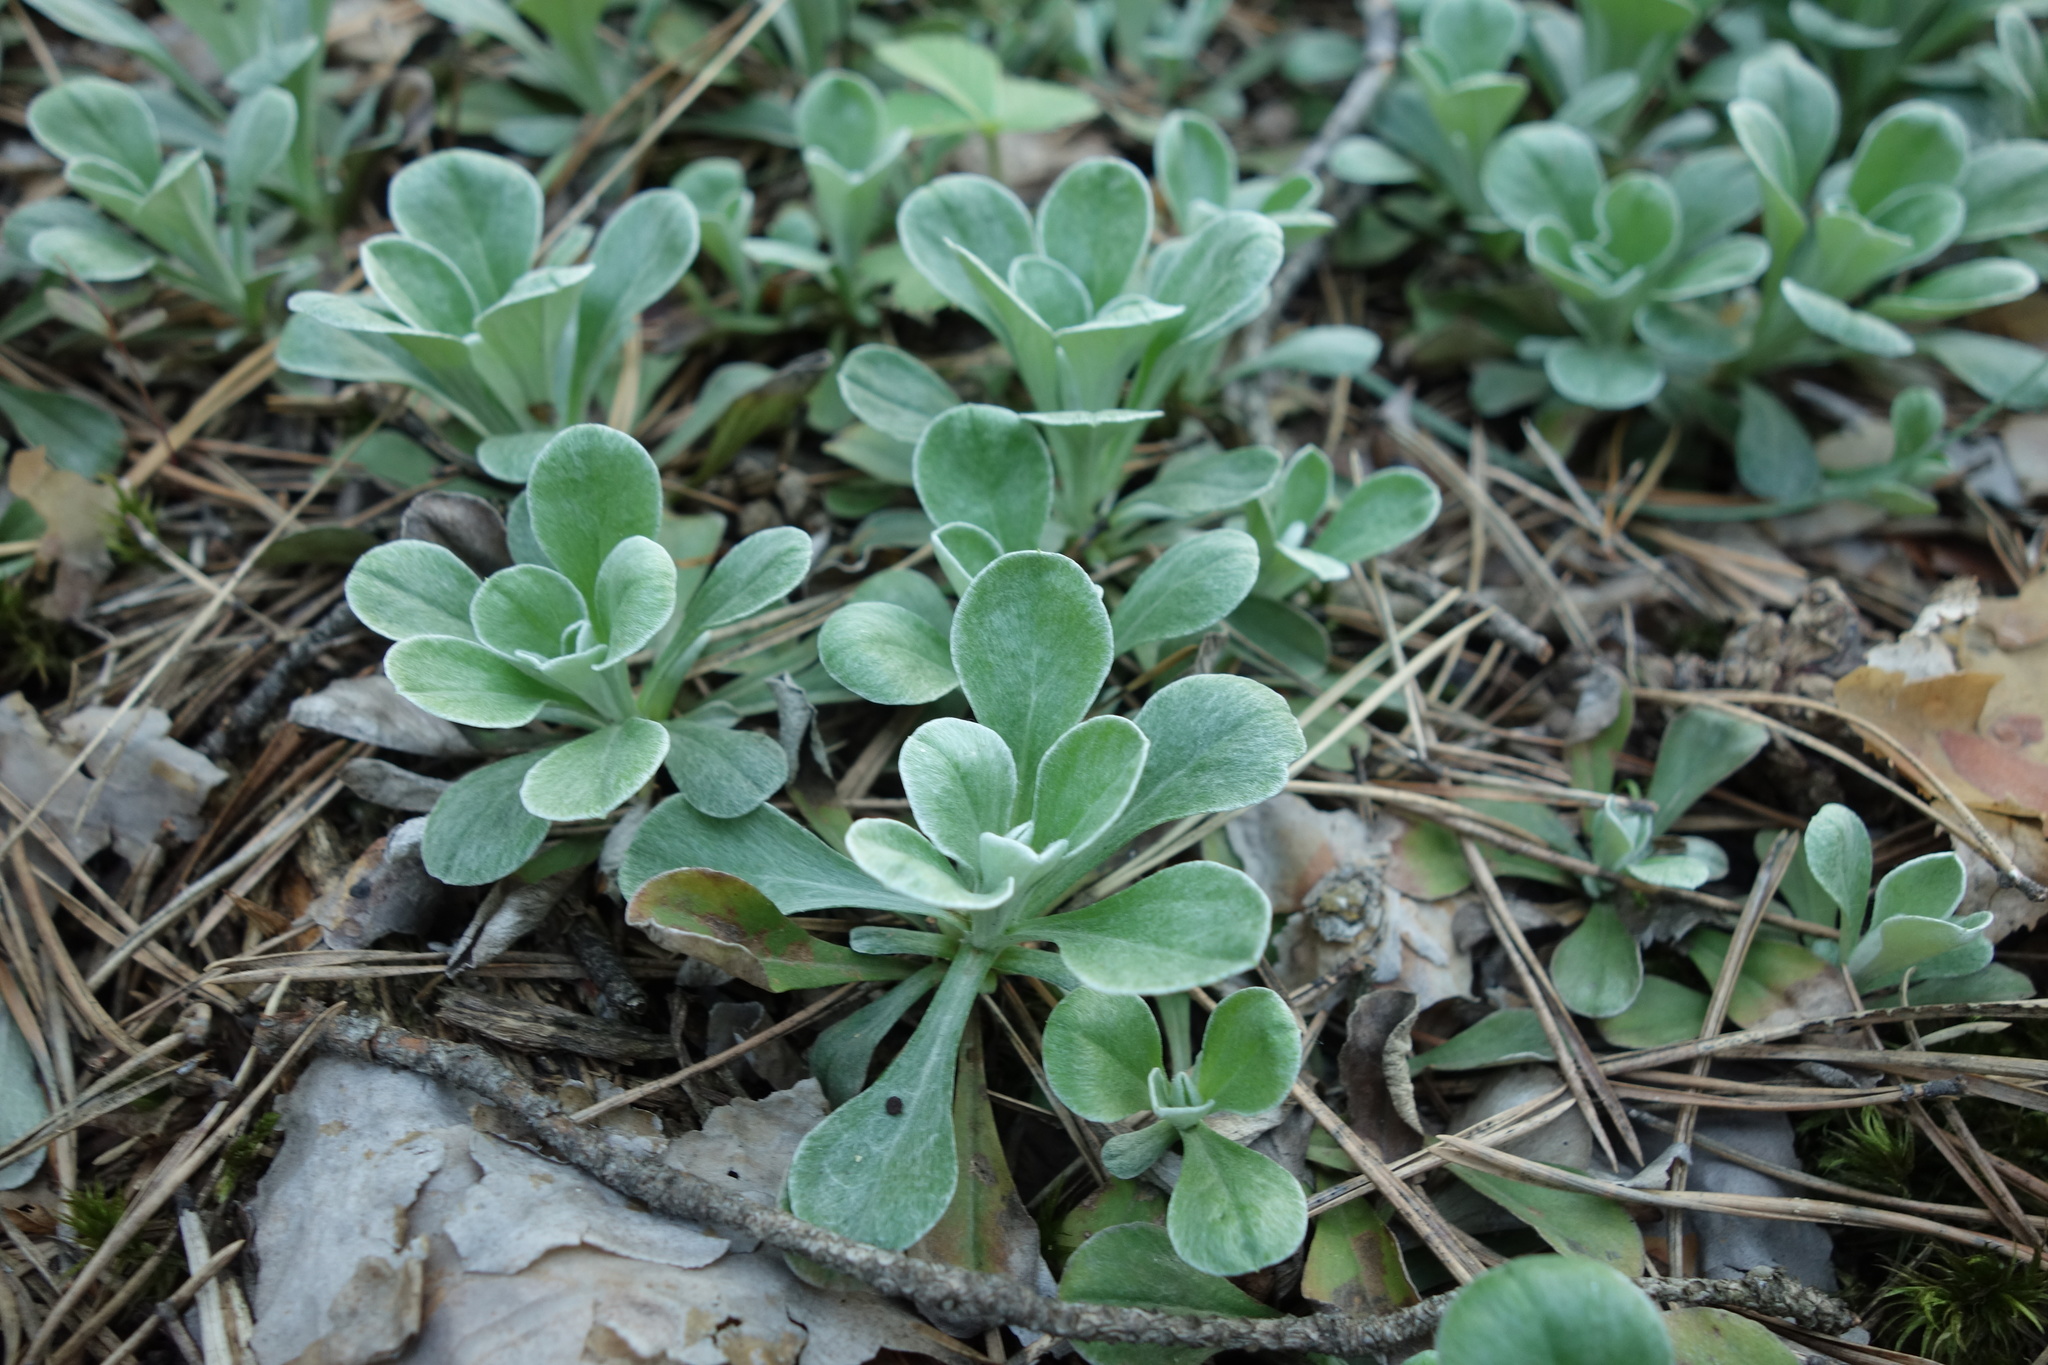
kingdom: Plantae
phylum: Tracheophyta
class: Magnoliopsida
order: Asterales
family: Asteraceae
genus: Antennaria
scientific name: Antennaria dioica
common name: Mountain everlasting
